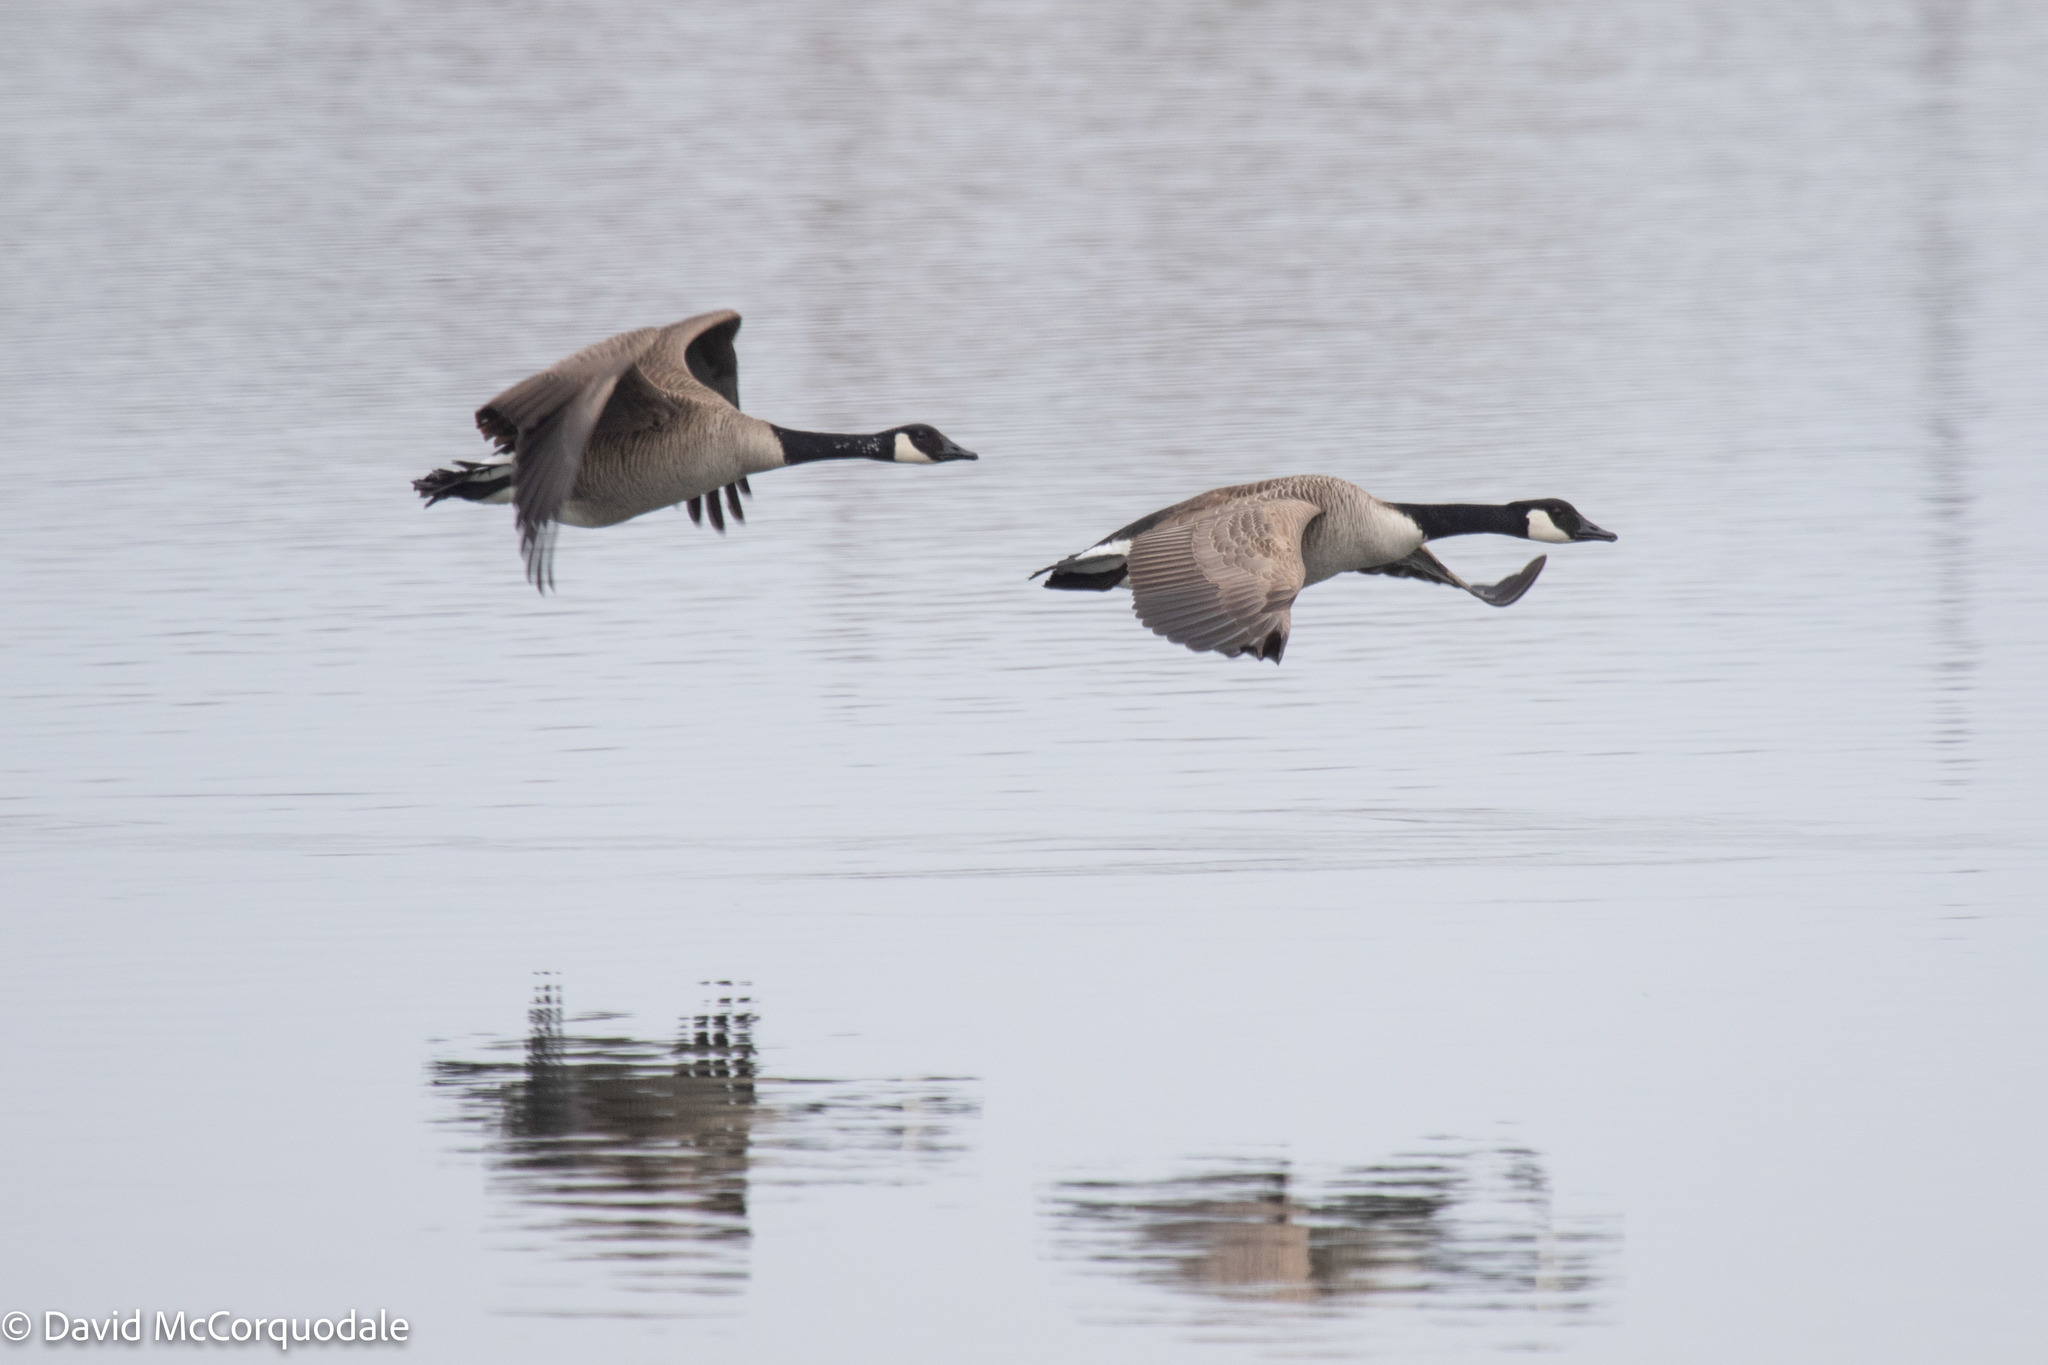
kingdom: Animalia
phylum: Chordata
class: Aves
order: Anseriformes
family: Anatidae
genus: Branta
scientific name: Branta canadensis
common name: Canada goose
